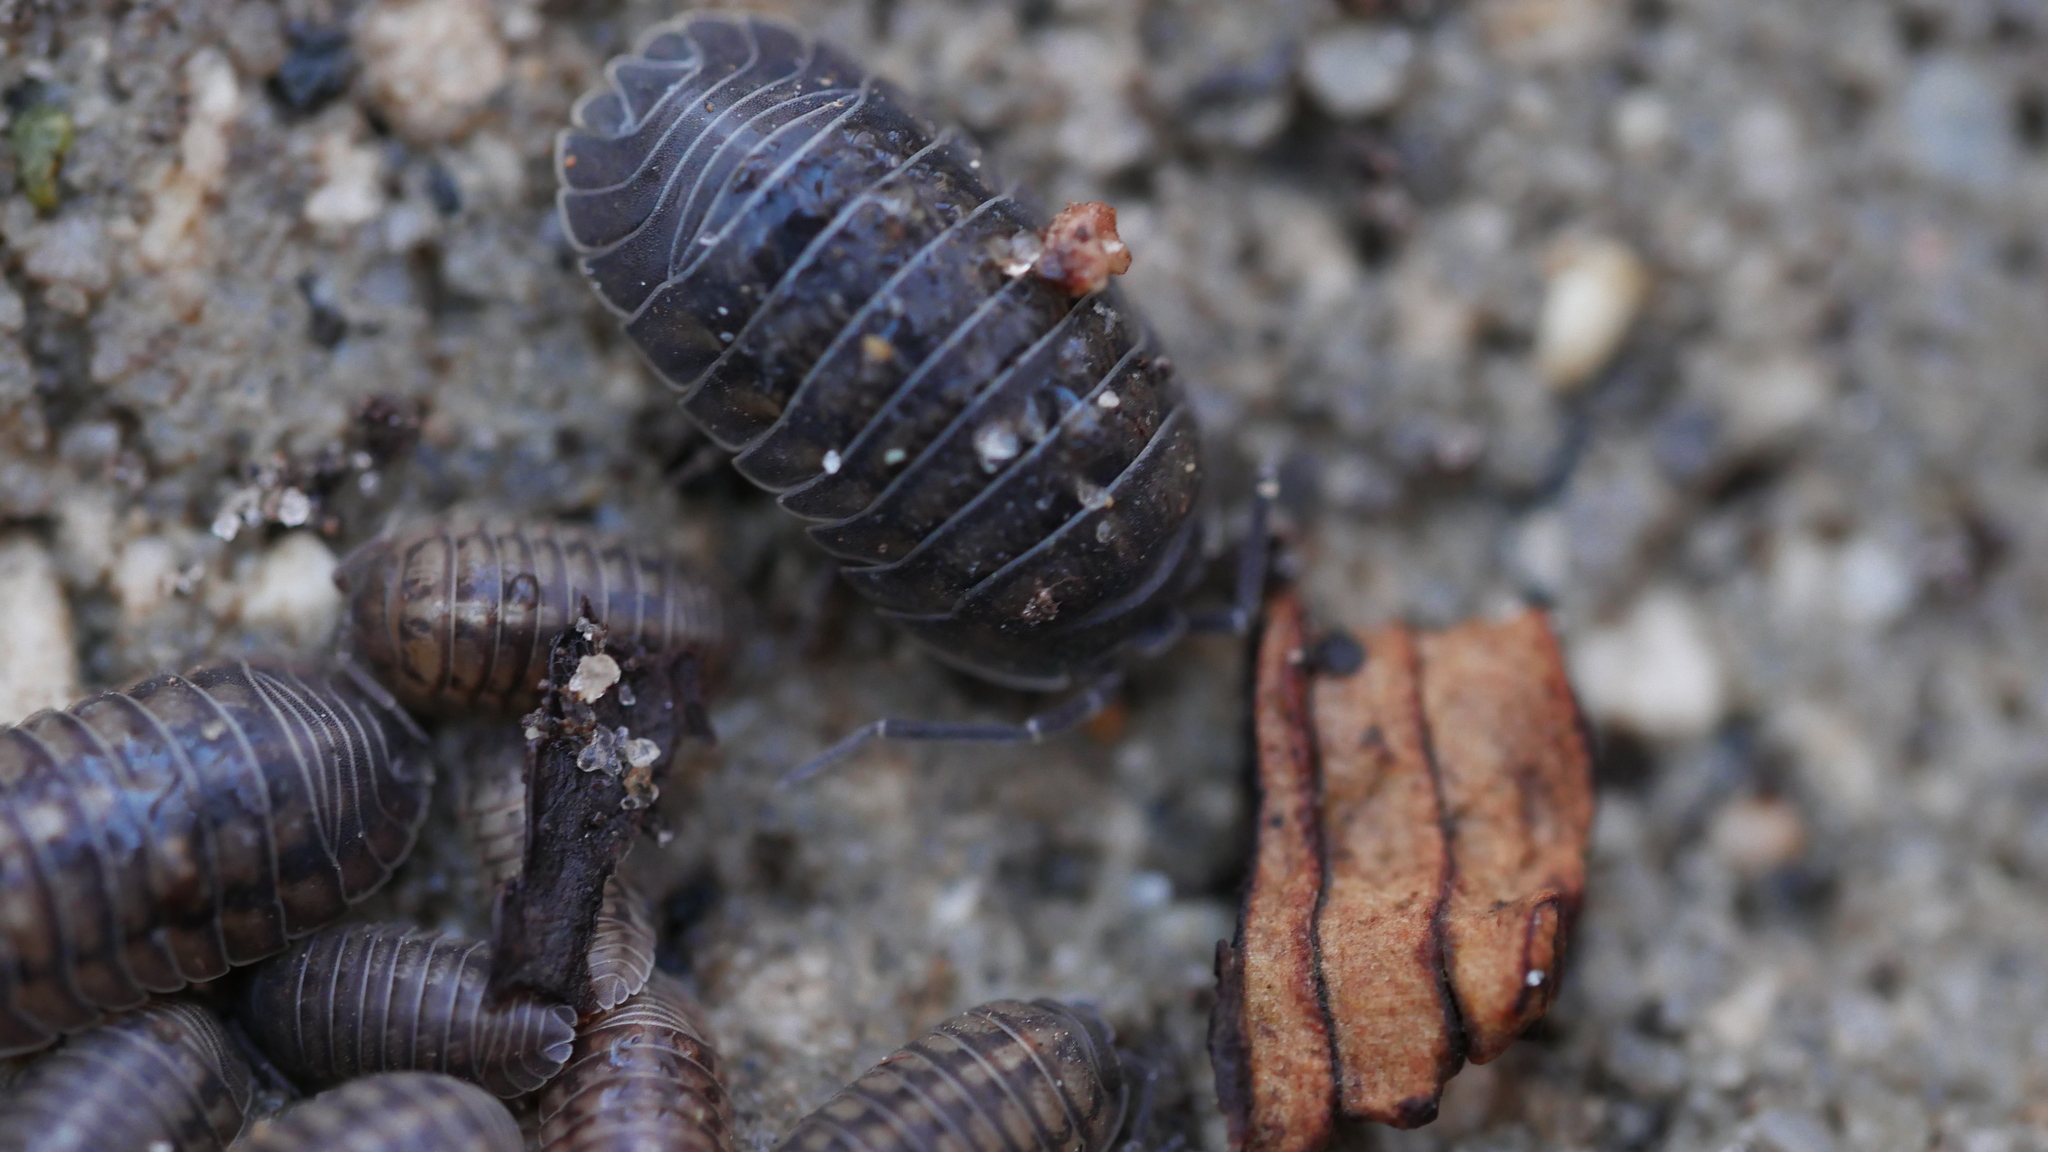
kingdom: Animalia
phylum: Arthropoda
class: Malacostraca
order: Isopoda
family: Armadillidiidae
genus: Armadillidium
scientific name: Armadillidium nasatum
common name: Isopod
